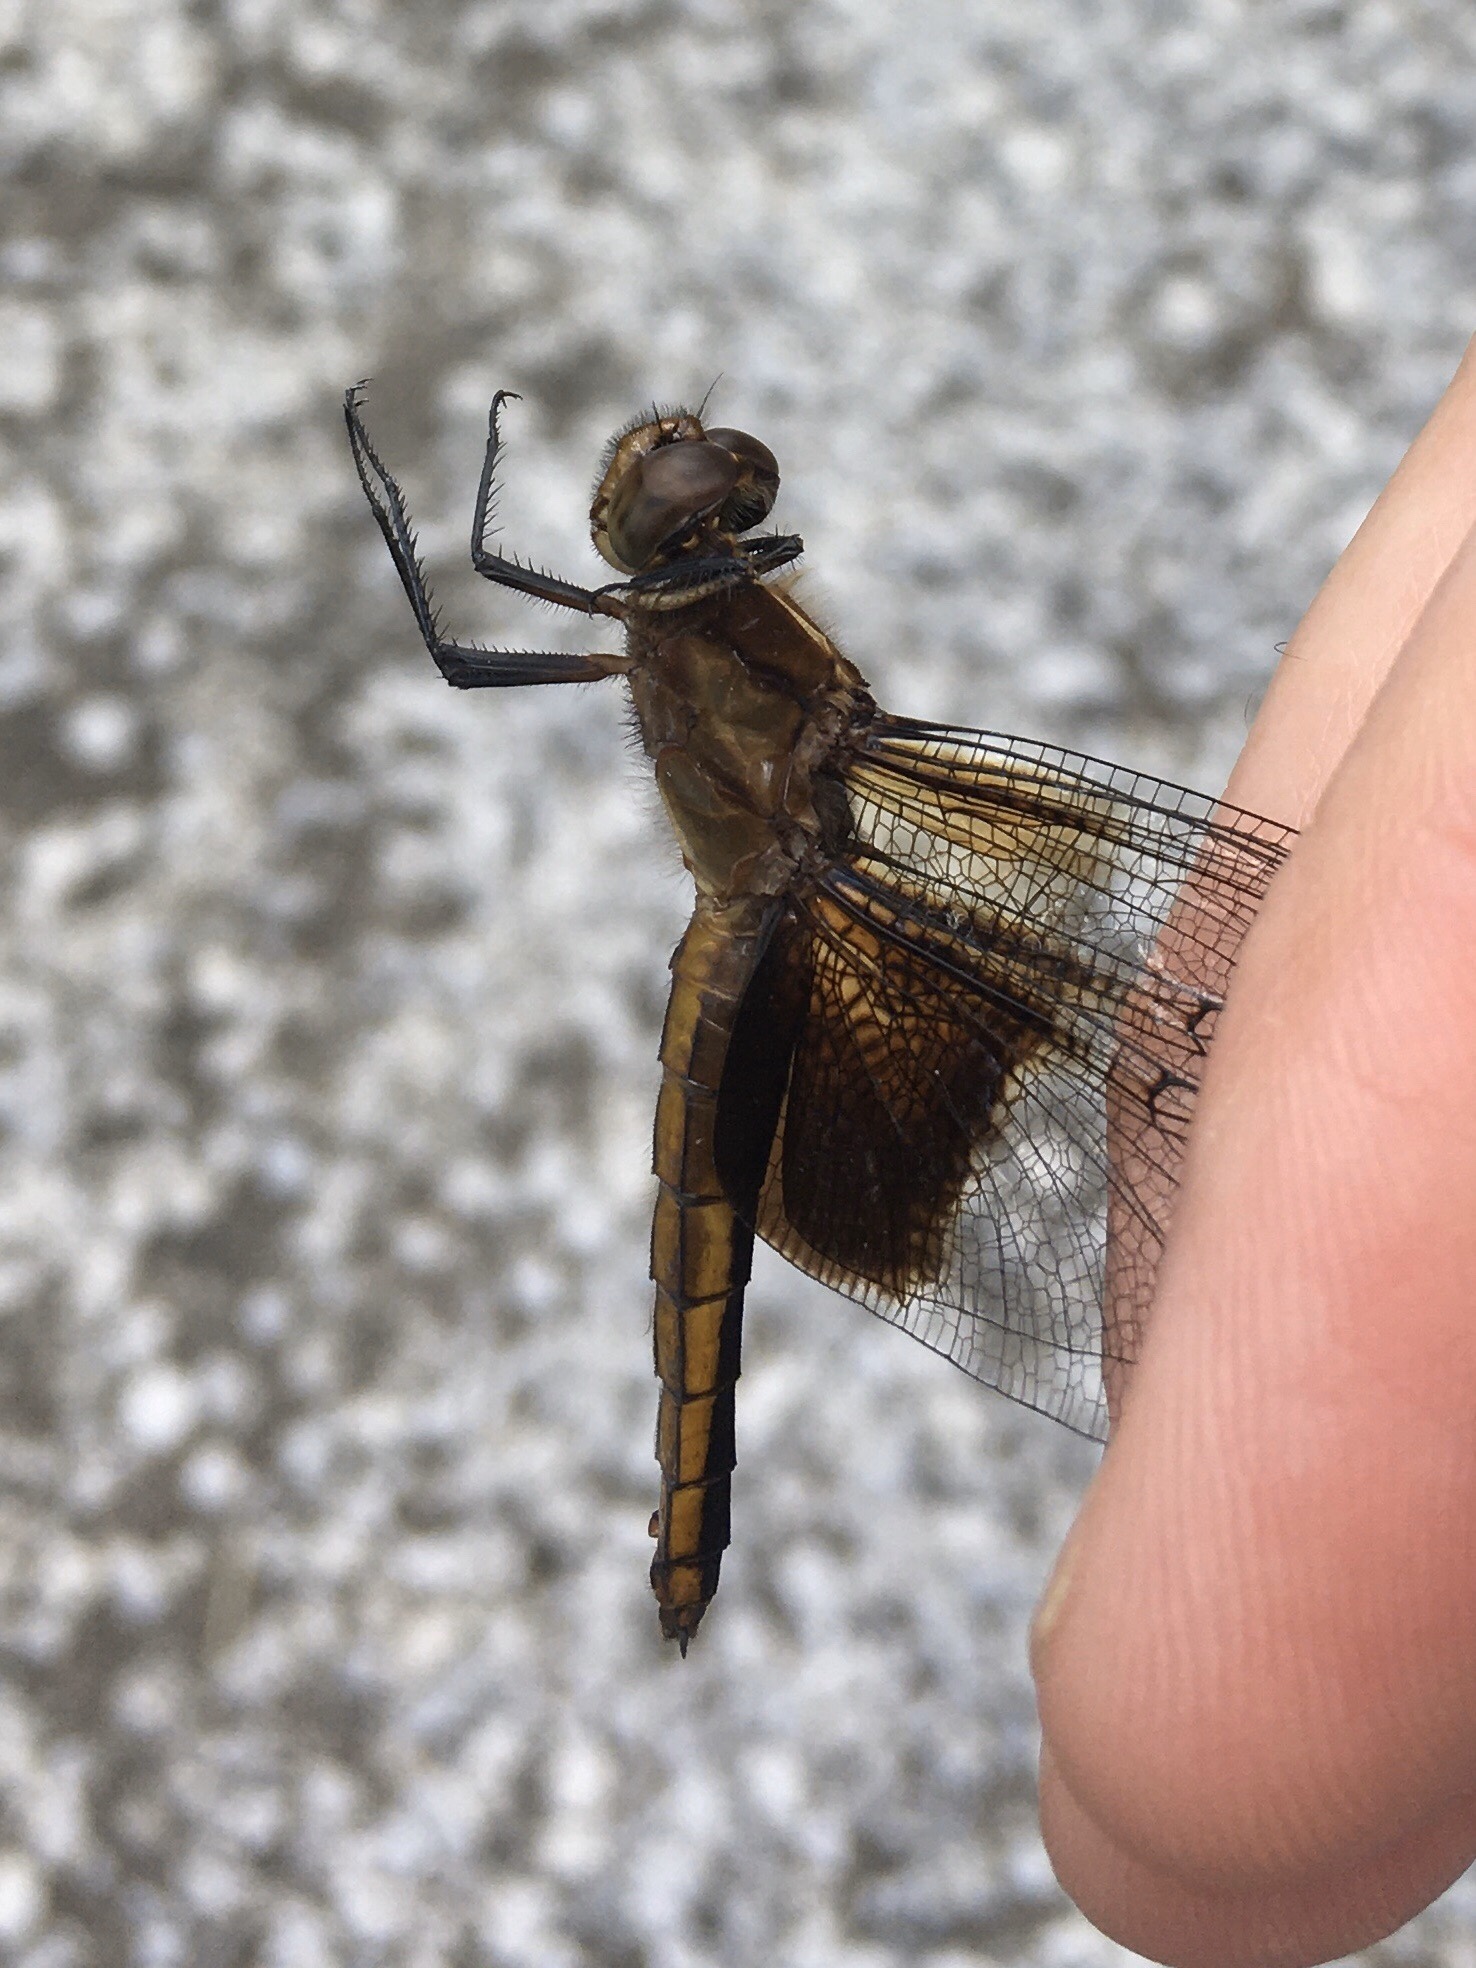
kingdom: Animalia
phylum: Arthropoda
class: Insecta
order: Odonata
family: Libellulidae
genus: Libellula
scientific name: Libellula luctuosa
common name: Widow skimmer
